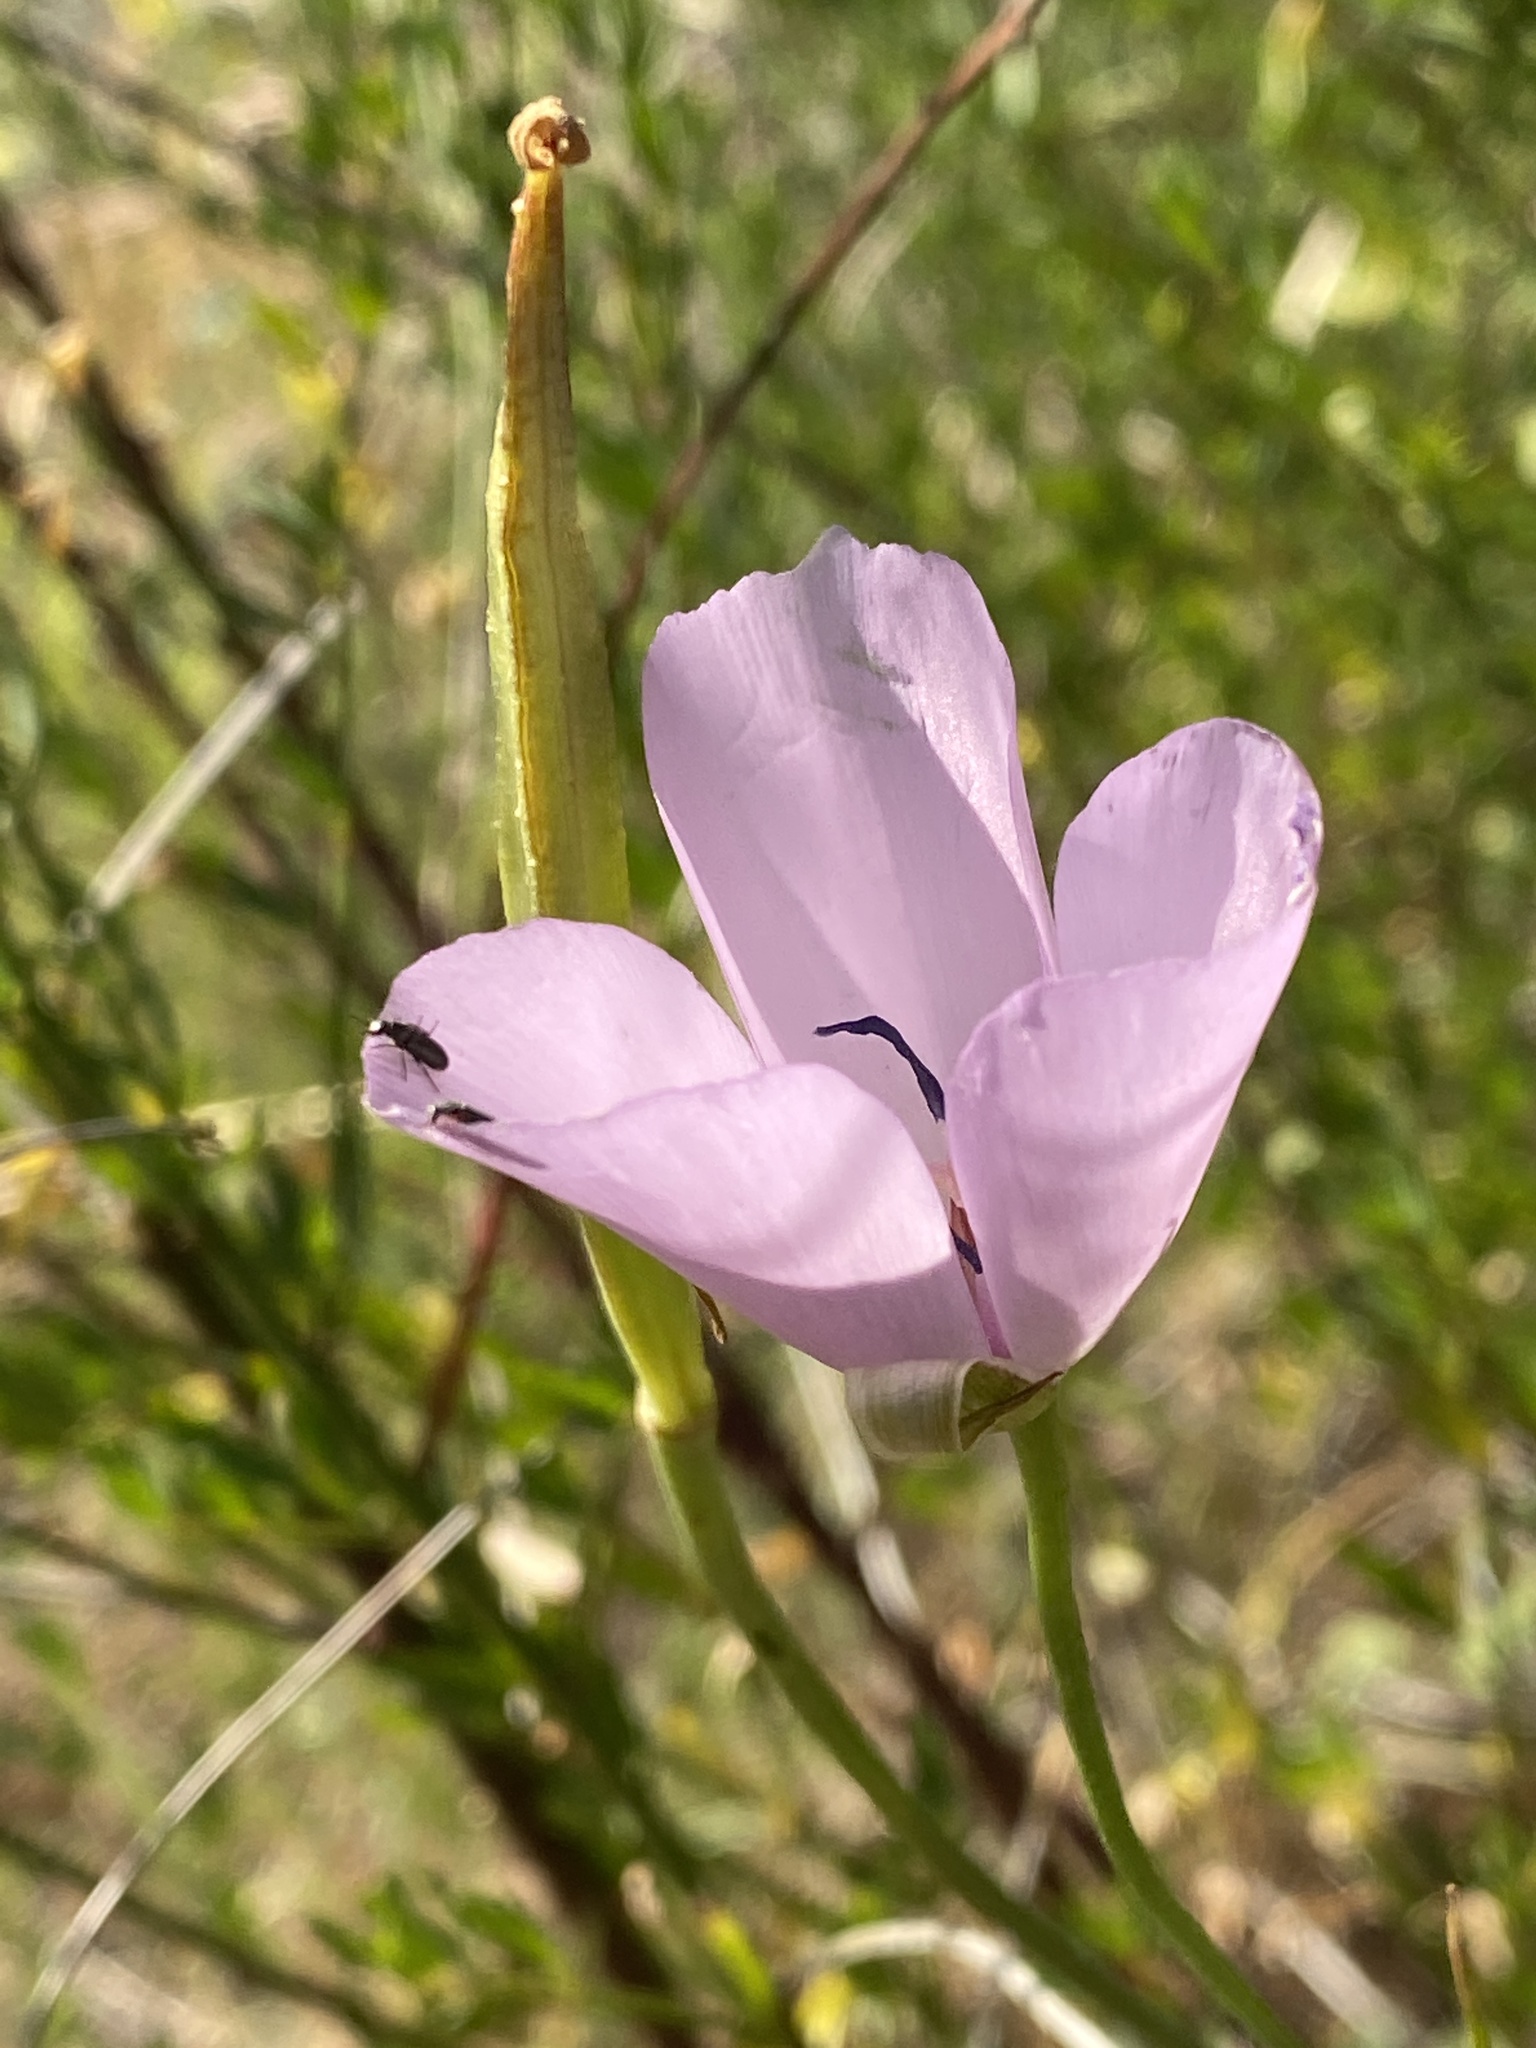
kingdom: Plantae
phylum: Tracheophyta
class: Liliopsida
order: Liliales
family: Liliaceae
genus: Calochortus
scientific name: Calochortus splendens
